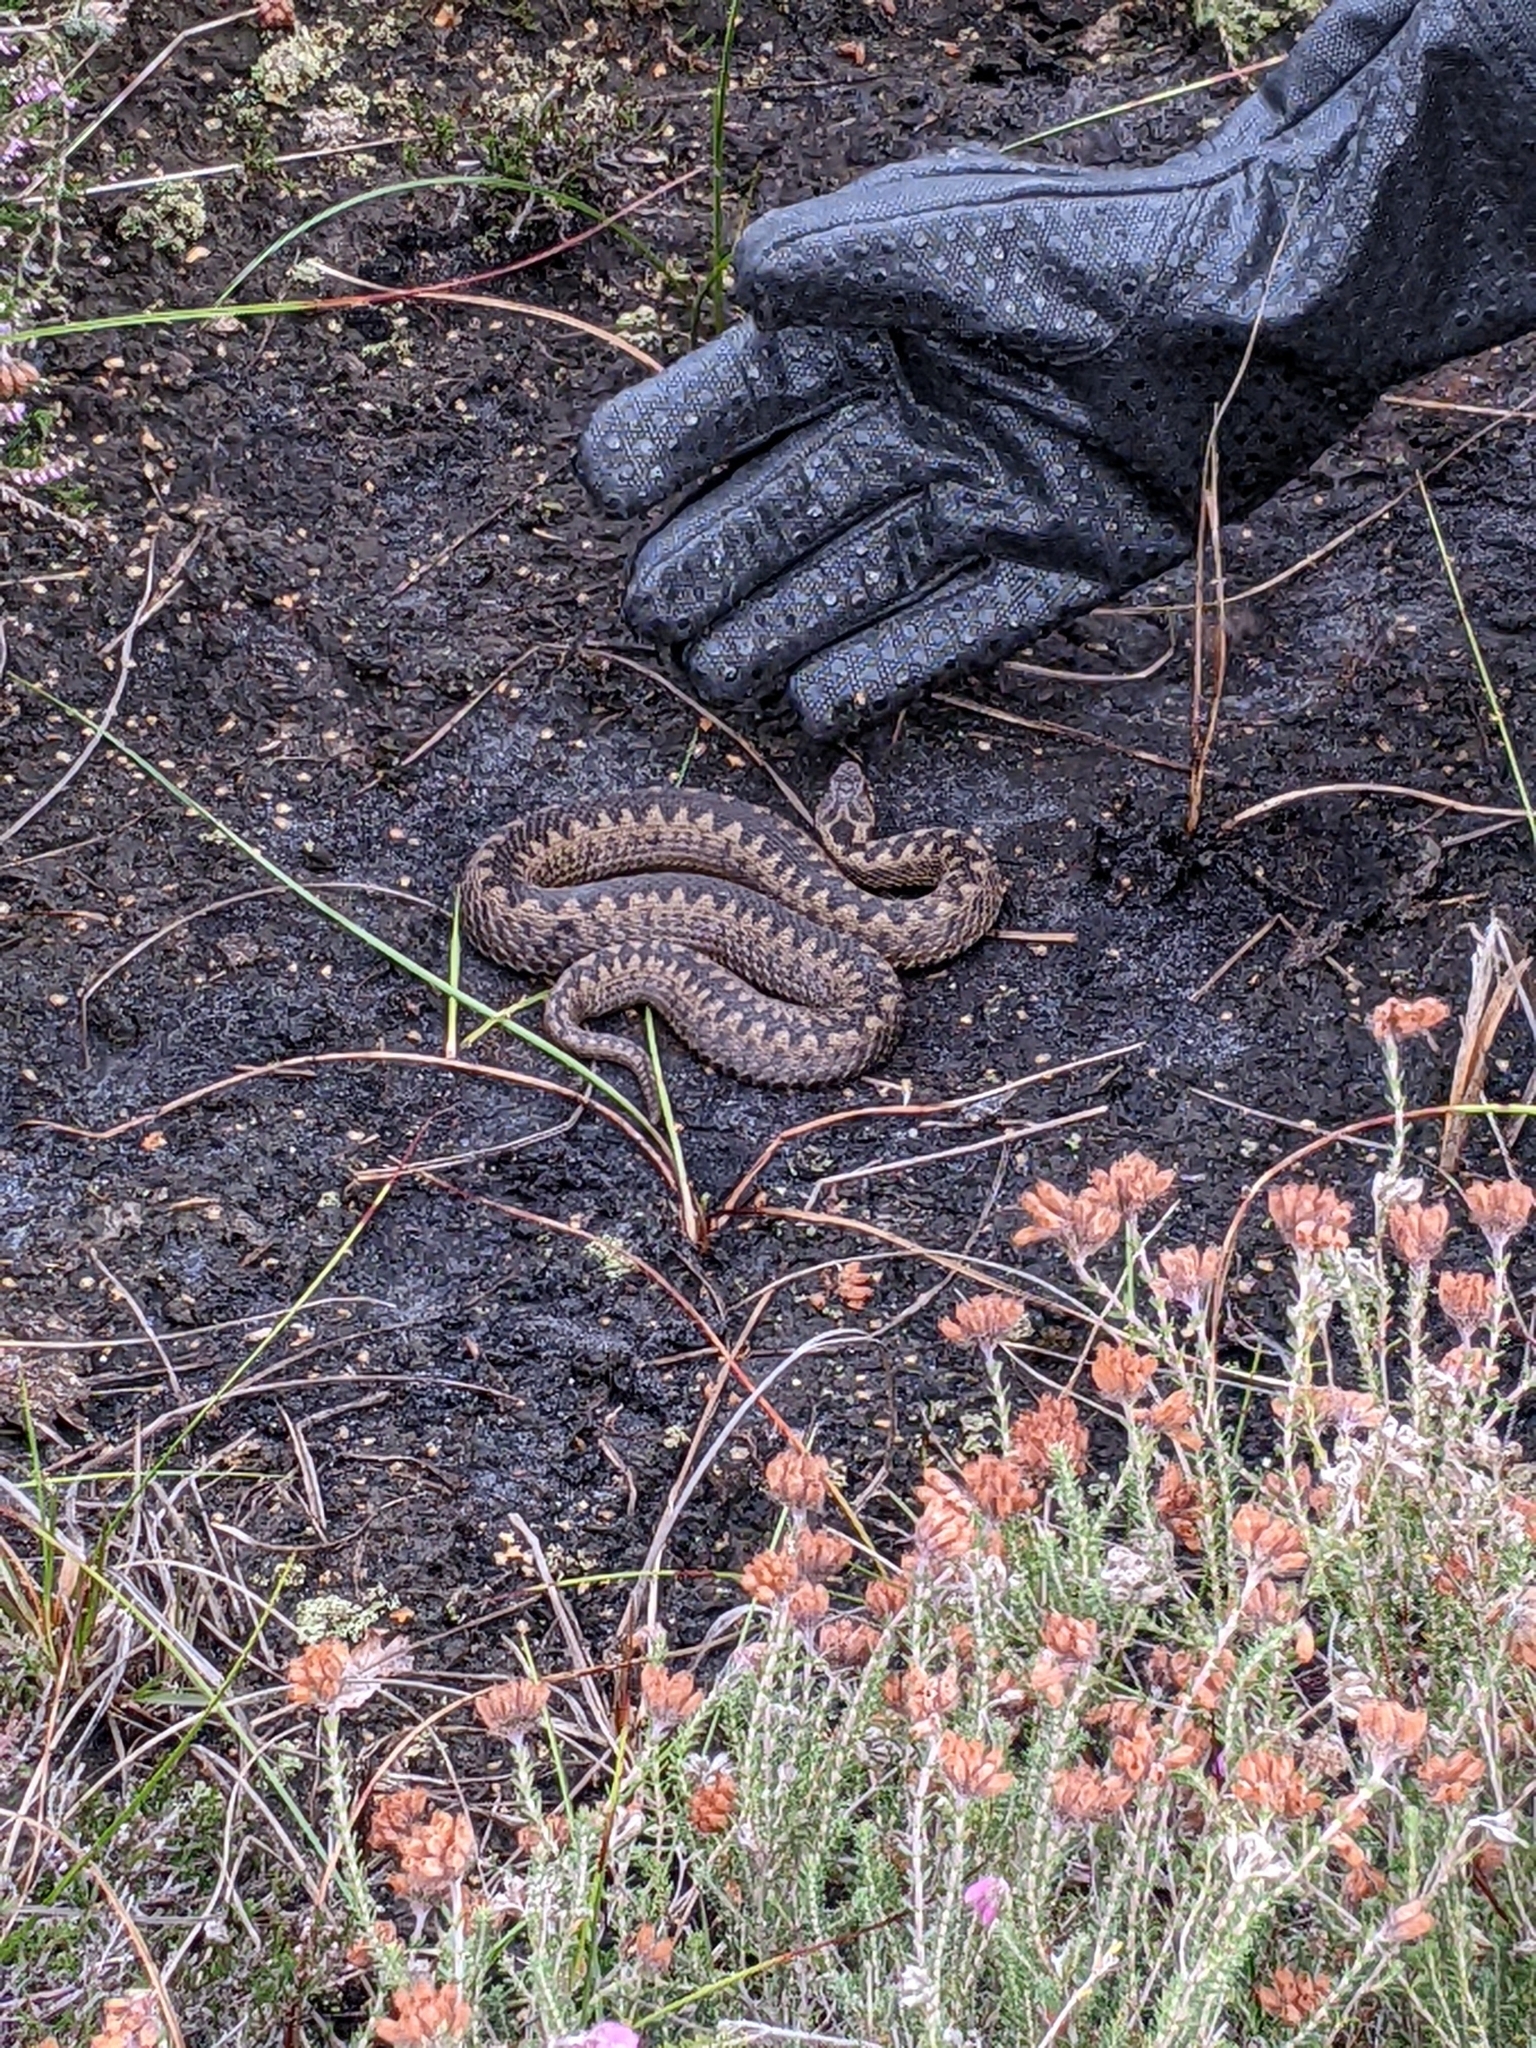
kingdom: Animalia
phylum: Chordata
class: Squamata
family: Viperidae
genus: Vipera
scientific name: Vipera berus
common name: Adder
